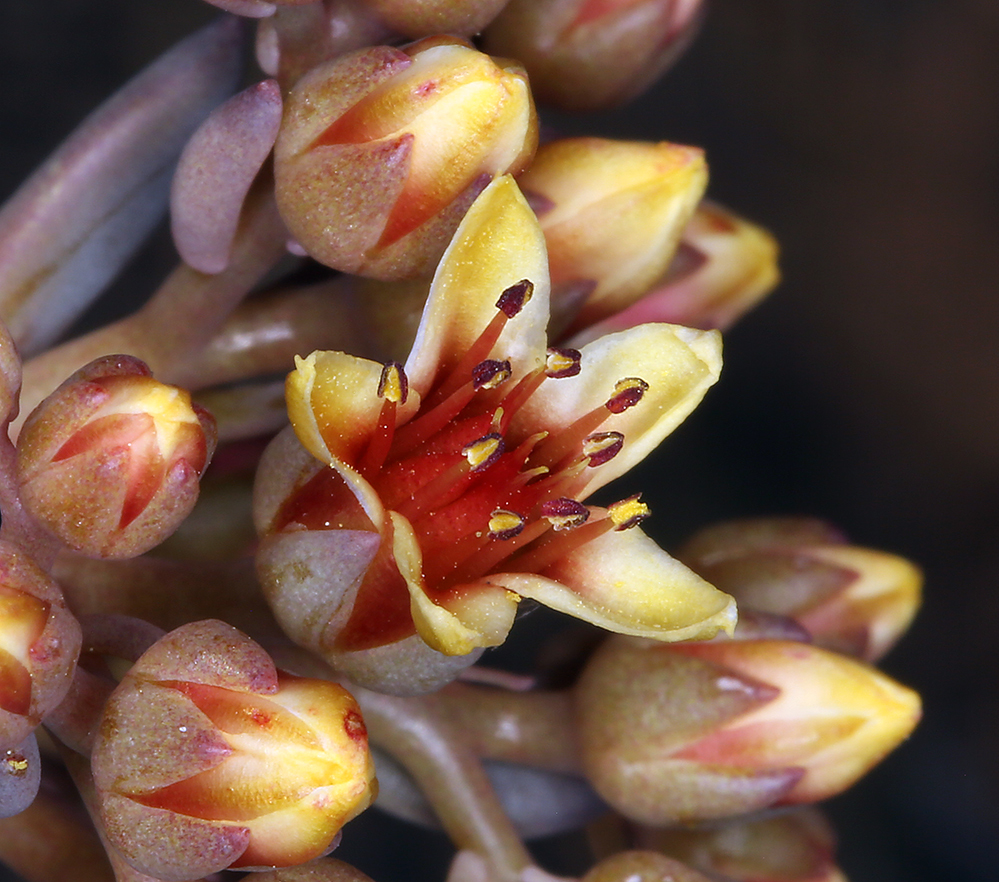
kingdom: Plantae
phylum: Tracheophyta
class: Magnoliopsida
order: Saxifragales
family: Crassulaceae
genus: Sedum
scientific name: Sedum rubiginosum
